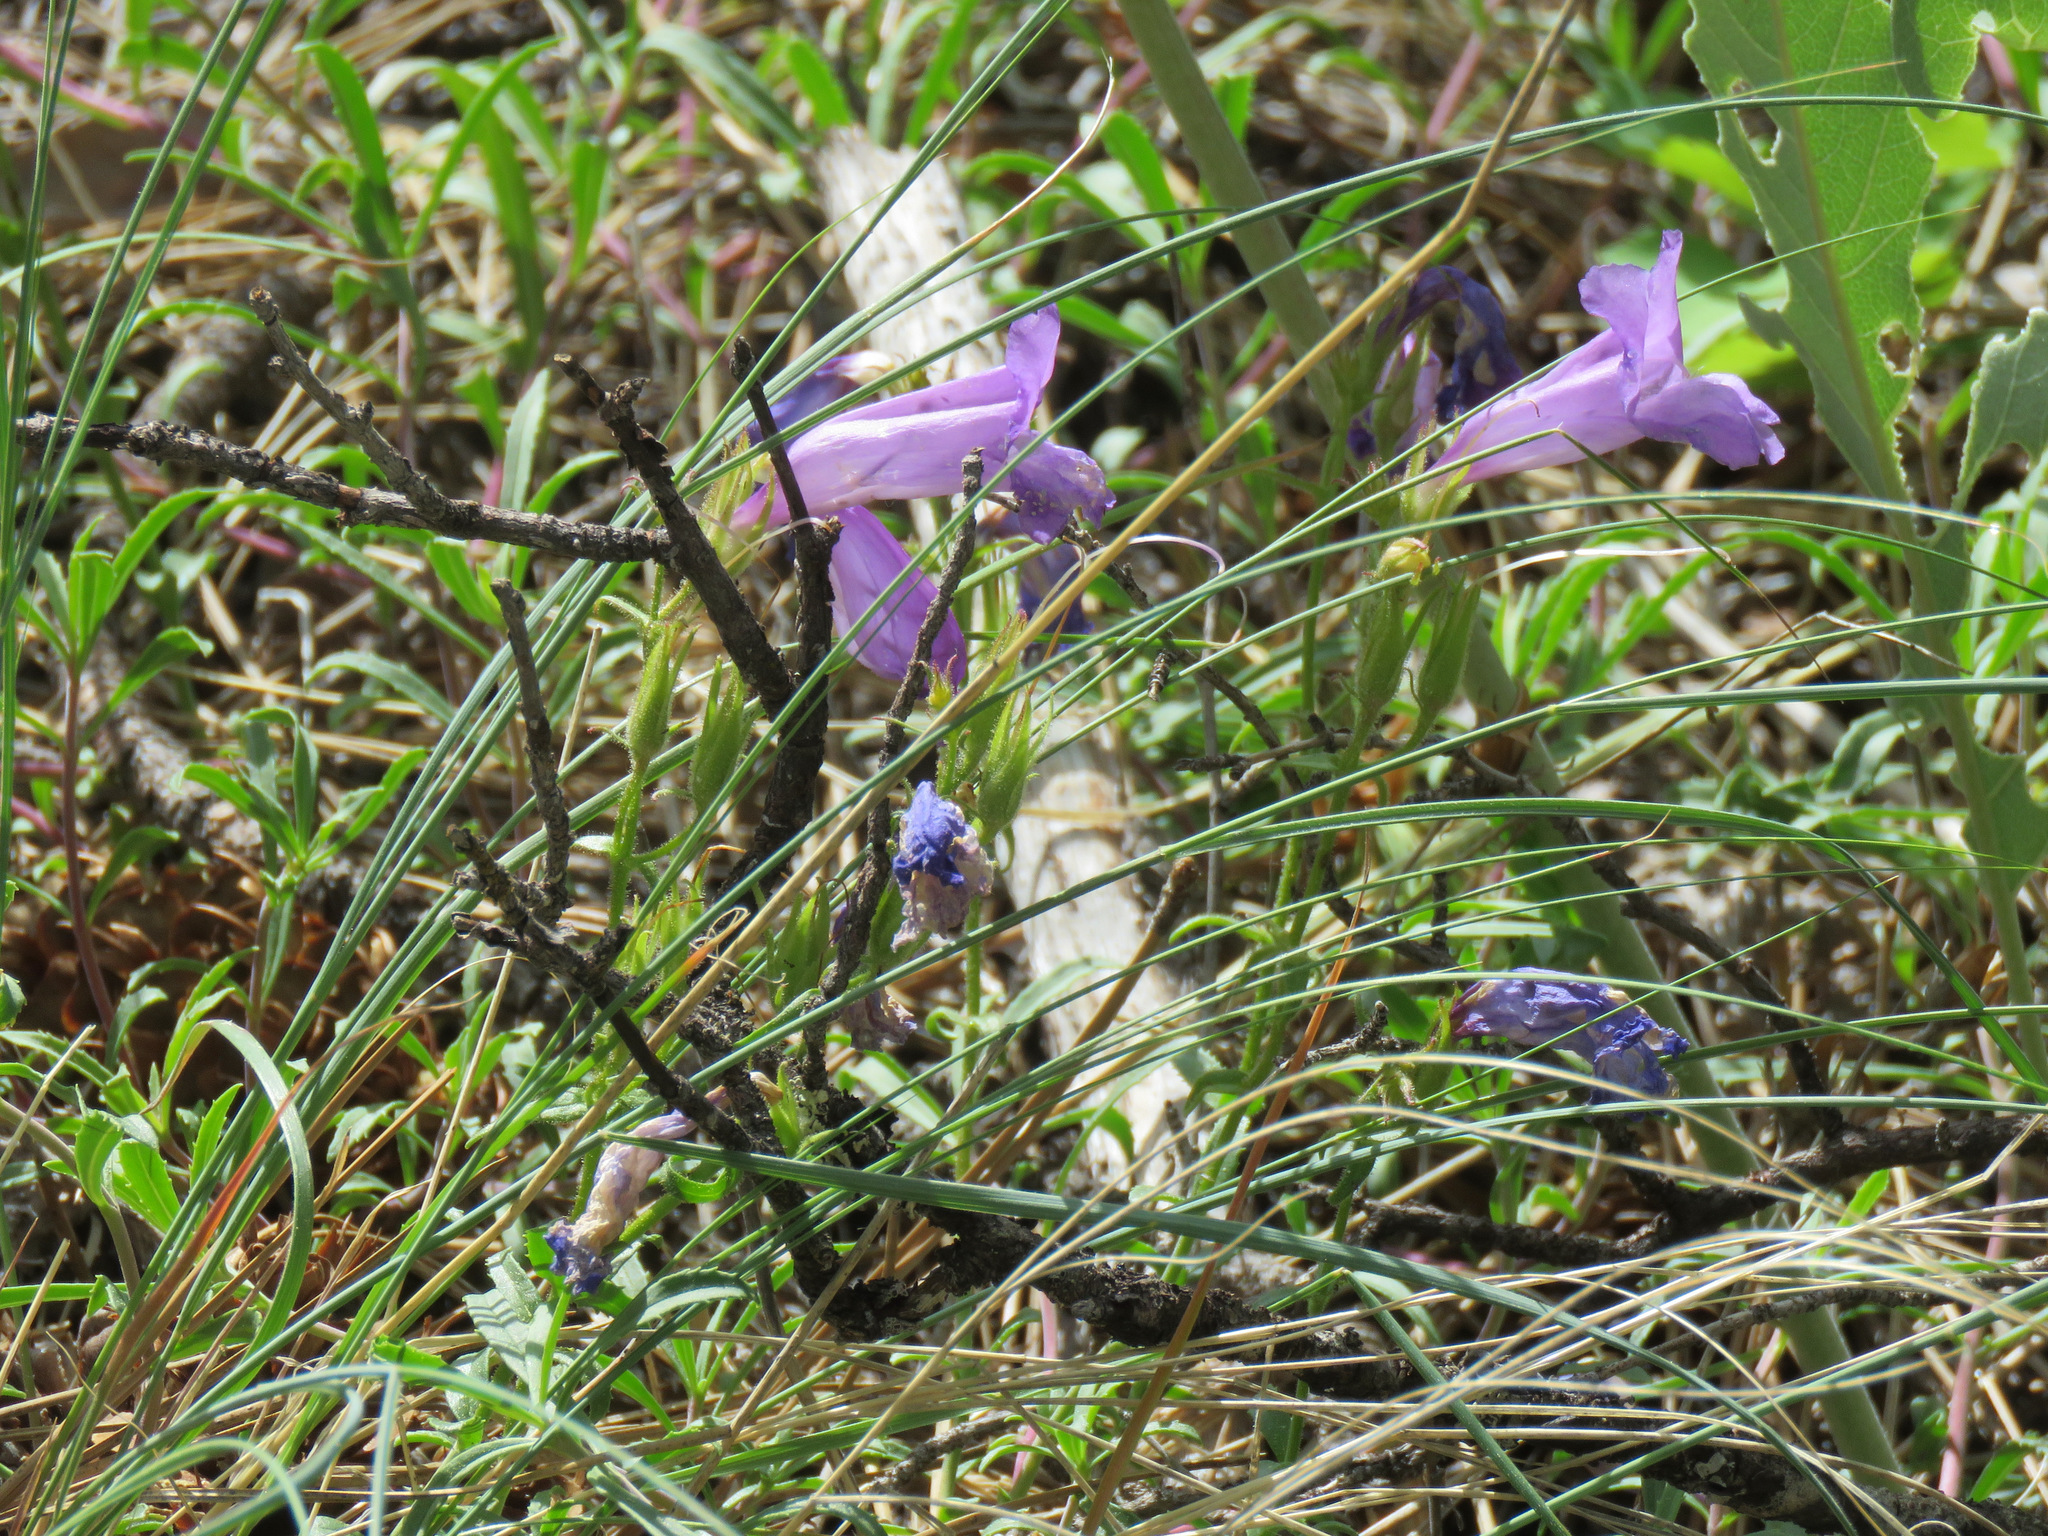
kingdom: Plantae
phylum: Tracheophyta
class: Magnoliopsida
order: Lamiales
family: Plantaginaceae
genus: Penstemon
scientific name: Penstemon fruticosus
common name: Bush penstemon
